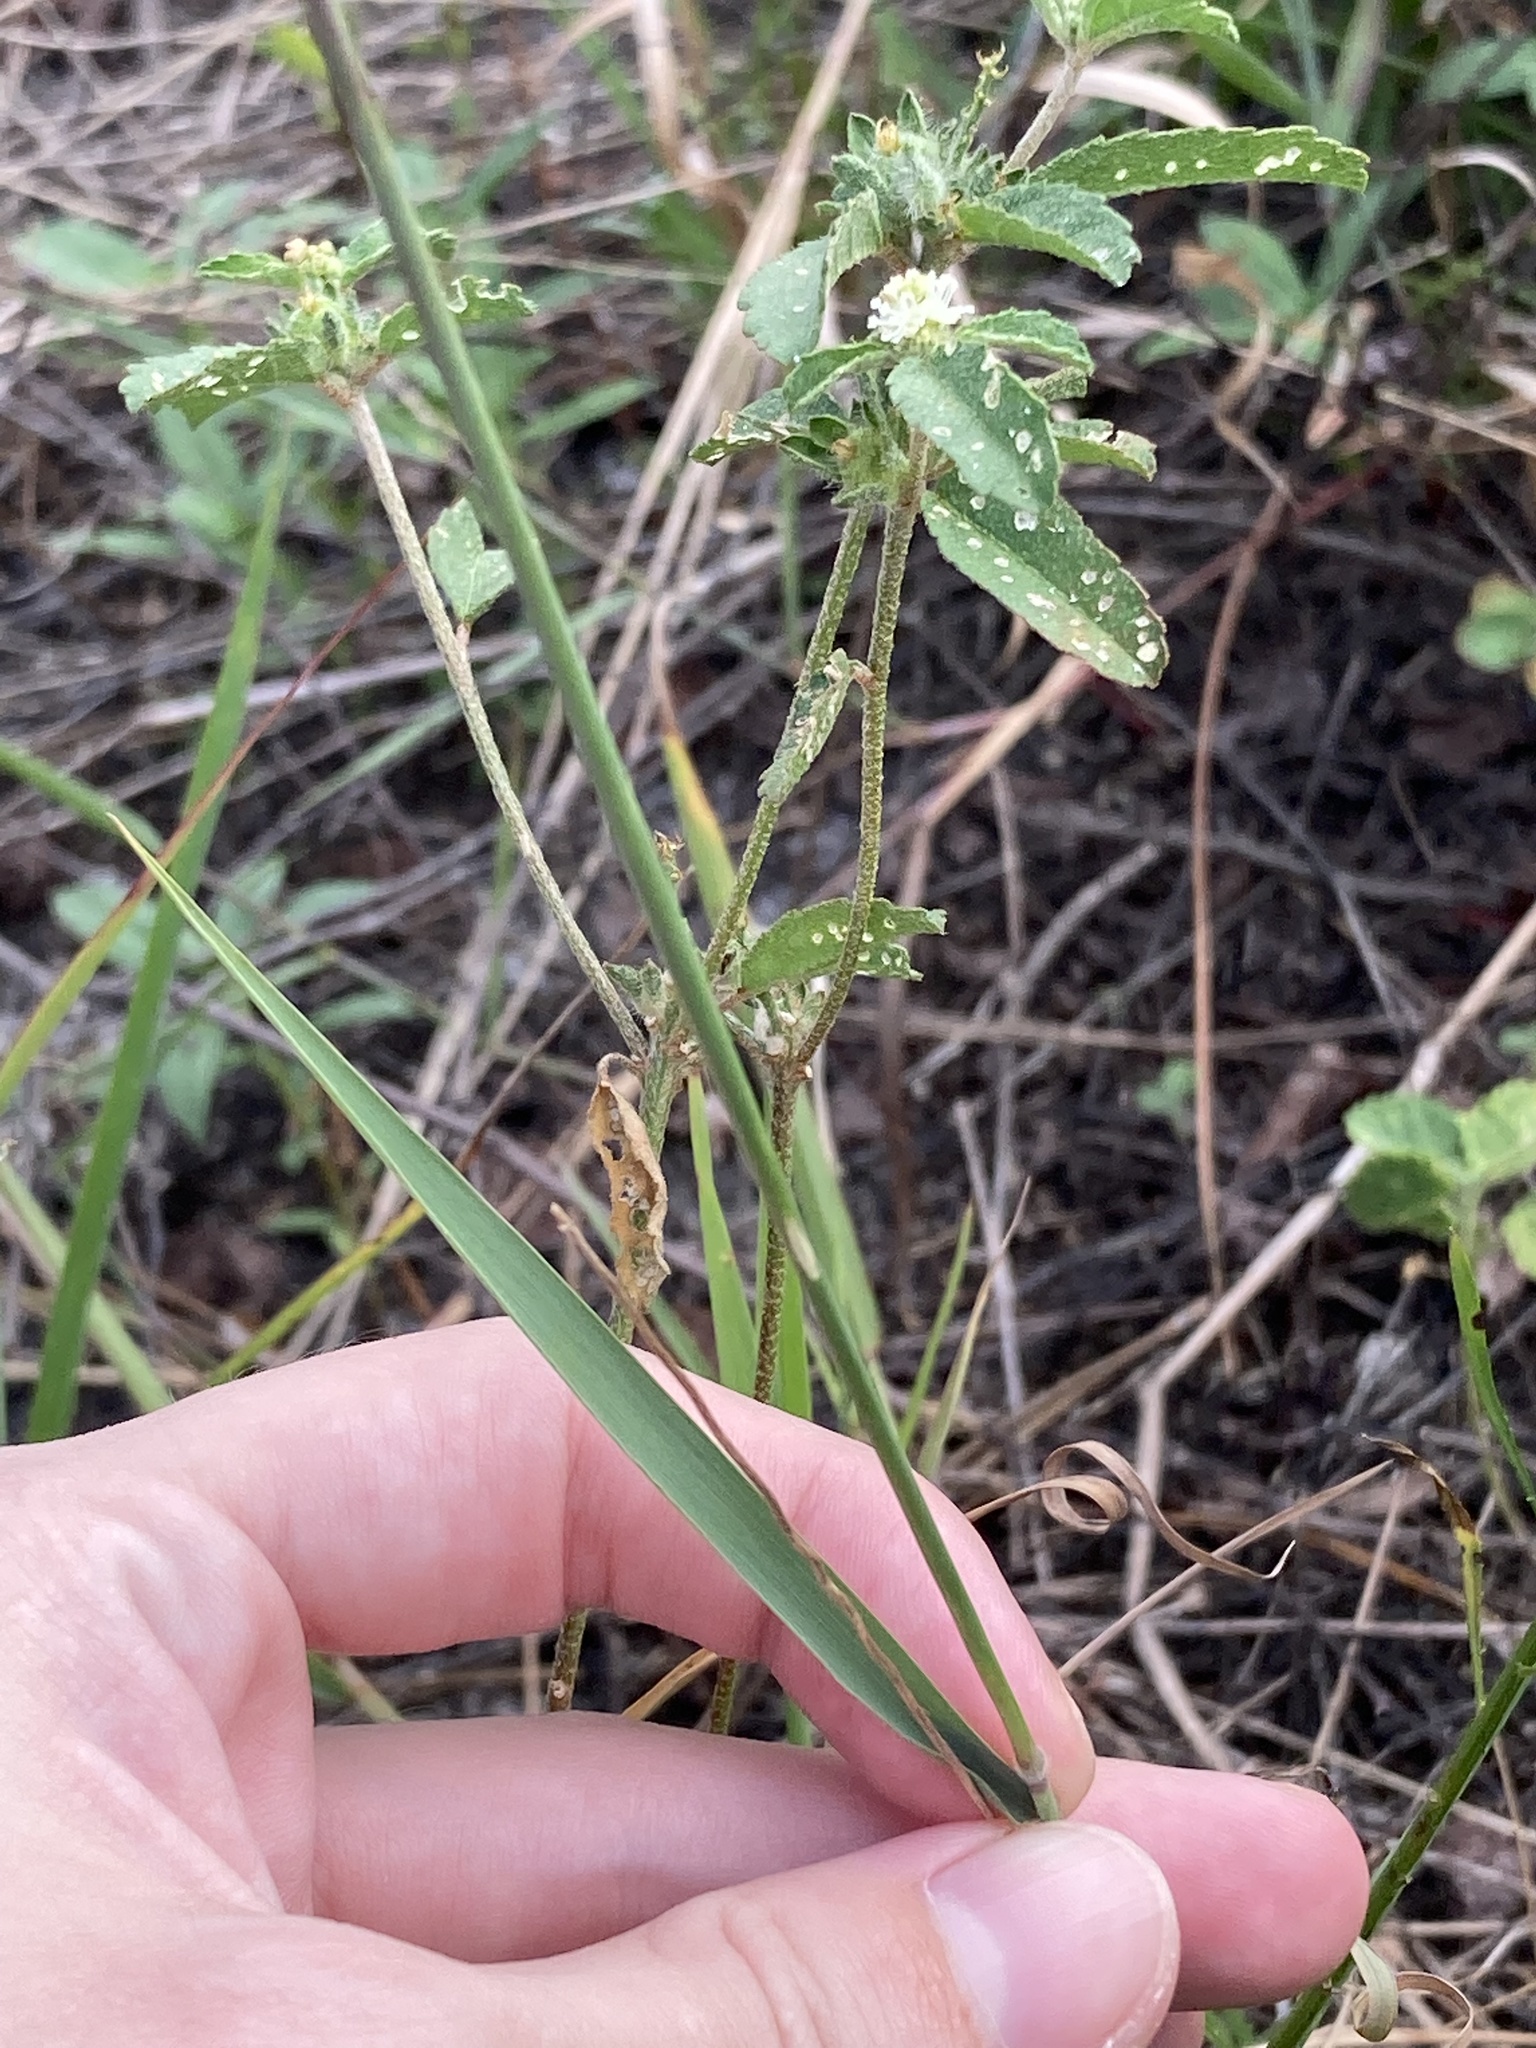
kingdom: Plantae
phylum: Tracheophyta
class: Liliopsida
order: Poales
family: Poaceae
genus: Melinis
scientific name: Melinis repens
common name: Rose natal grass
